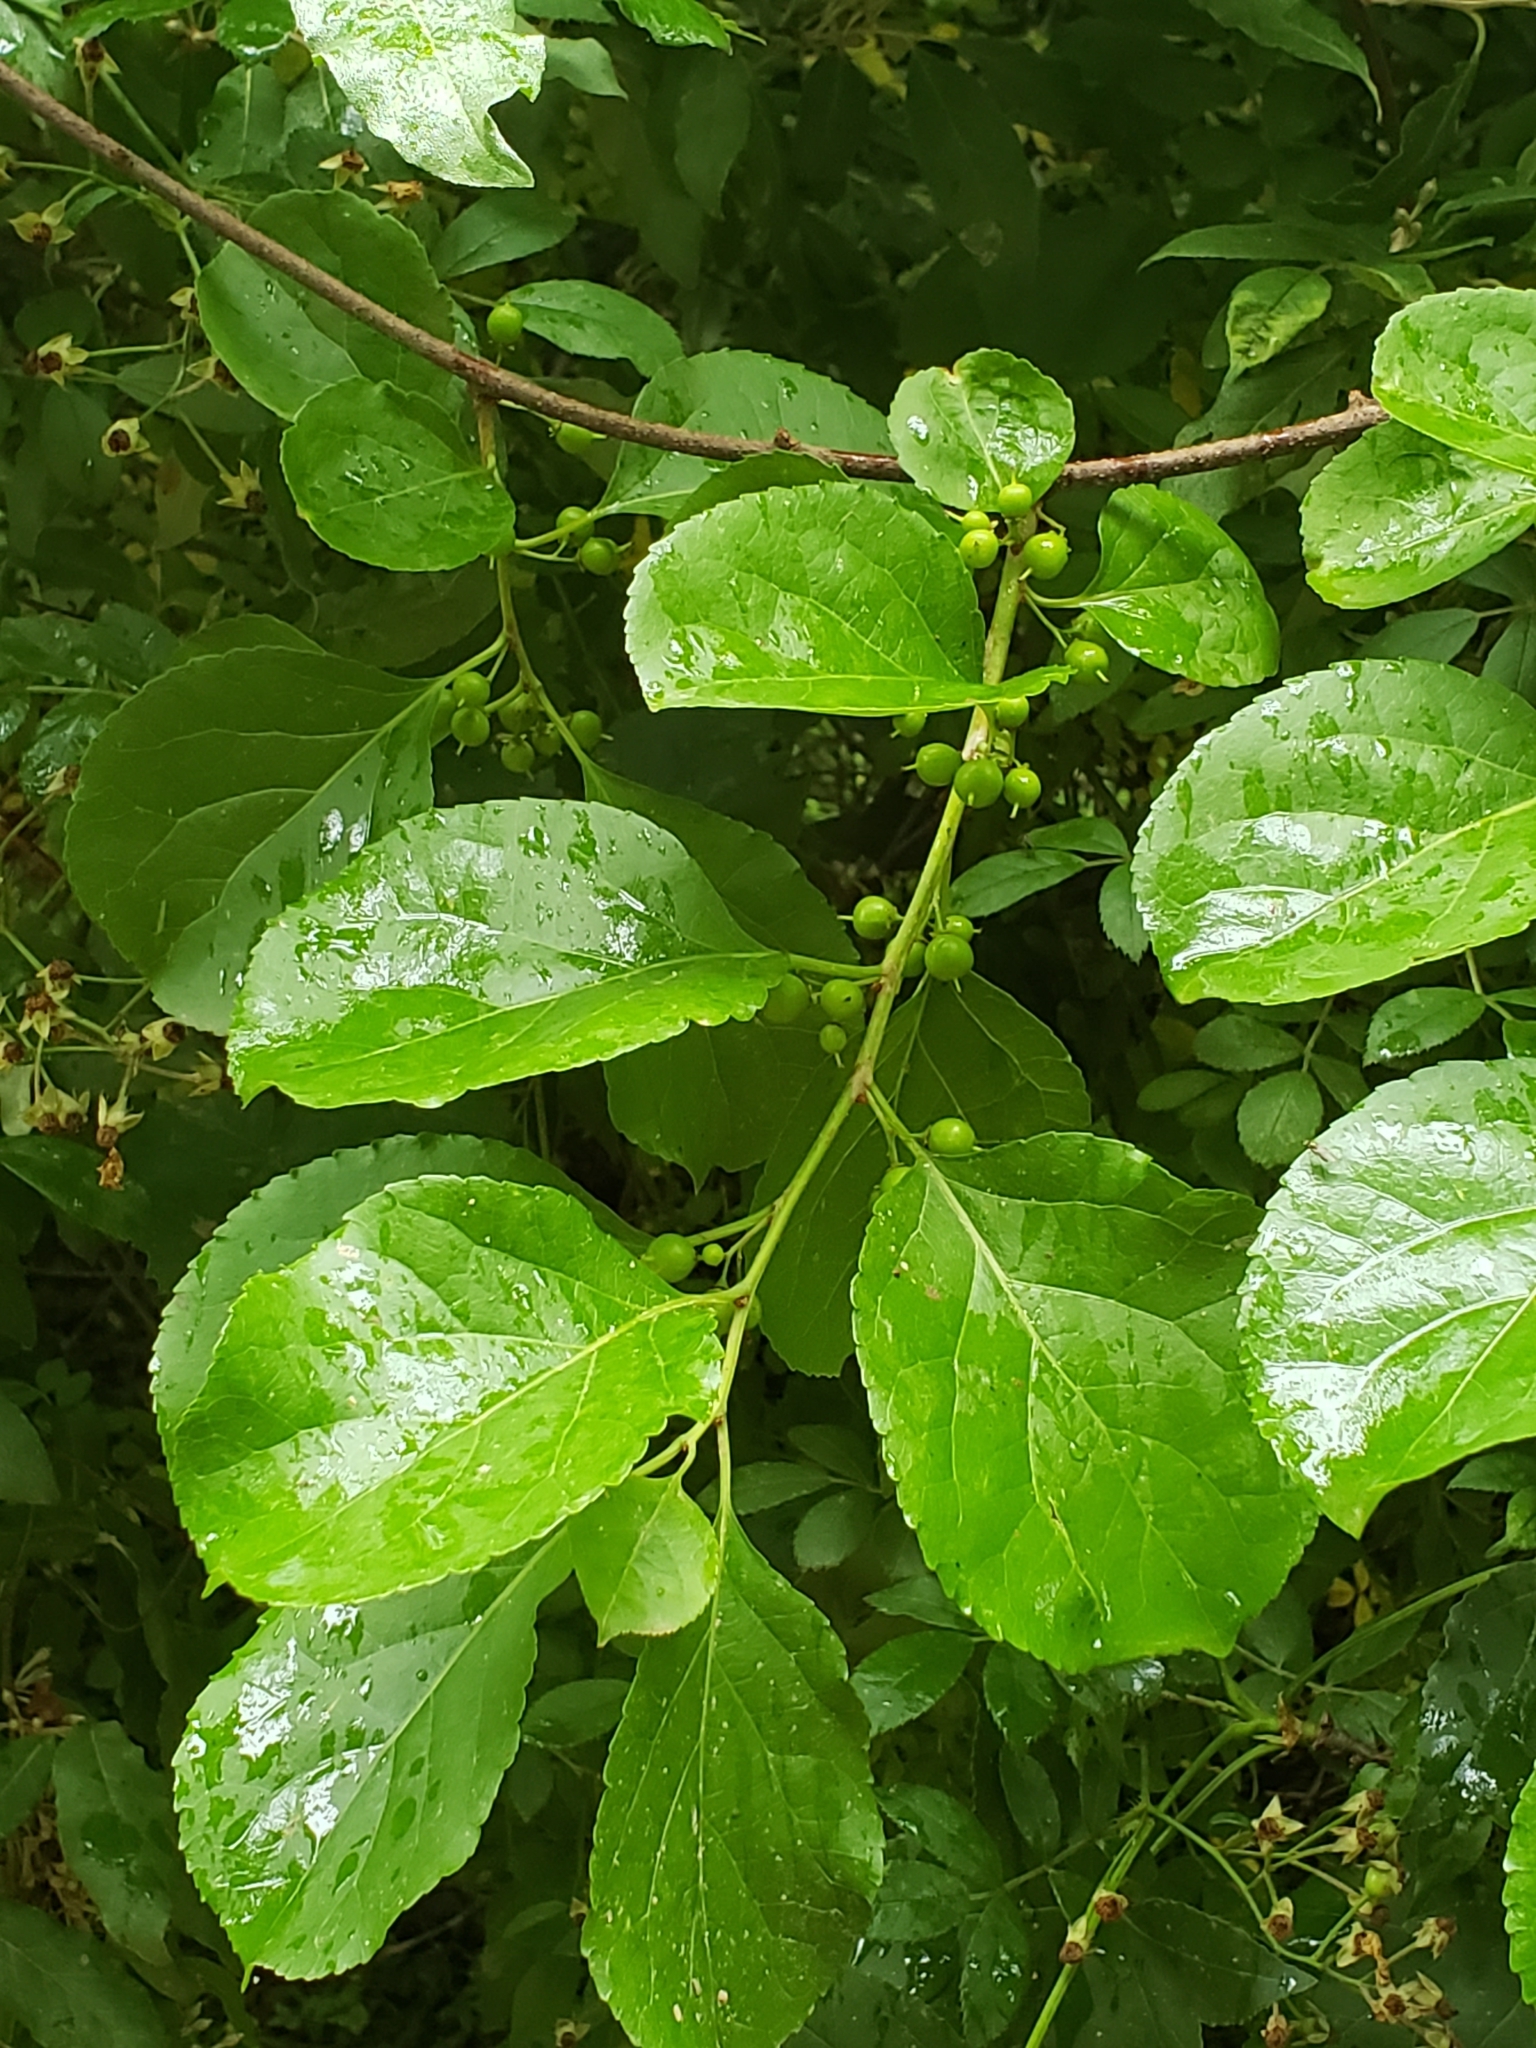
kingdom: Plantae
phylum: Tracheophyta
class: Magnoliopsida
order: Celastrales
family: Celastraceae
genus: Celastrus
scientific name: Celastrus orbiculatus
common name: Oriental bittersweet
